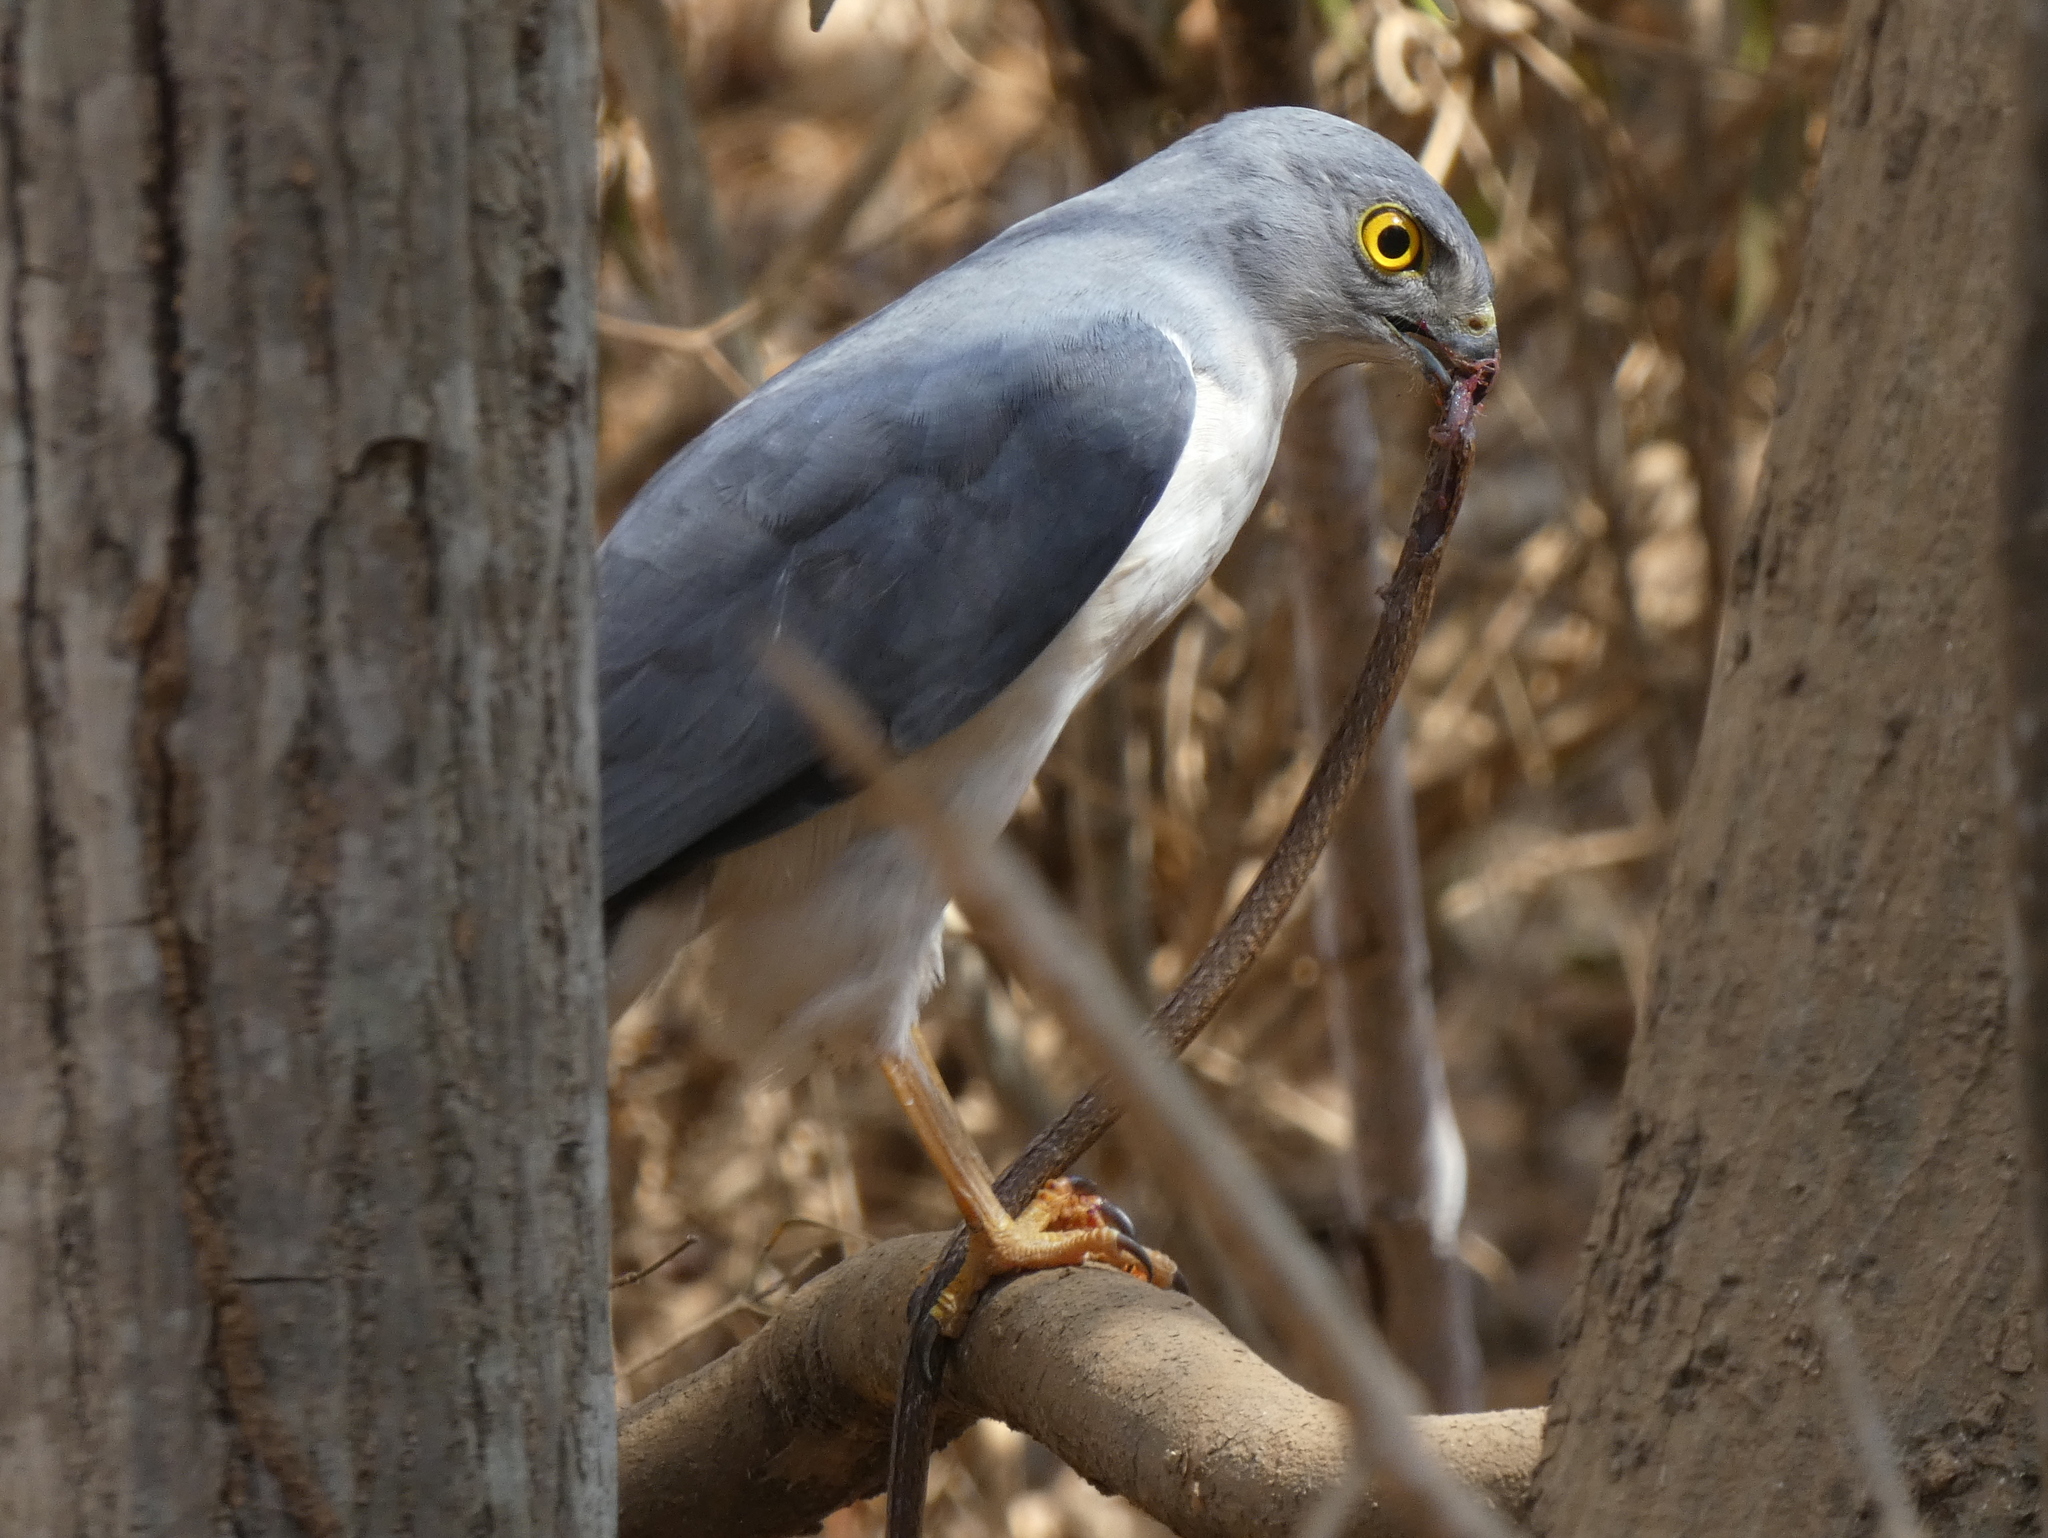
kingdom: Animalia
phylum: Chordata
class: Aves
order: Accipitriformes
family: Accipitridae
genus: Accipiter
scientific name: Accipiter francesiae
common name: Frances's sparrowhawk
